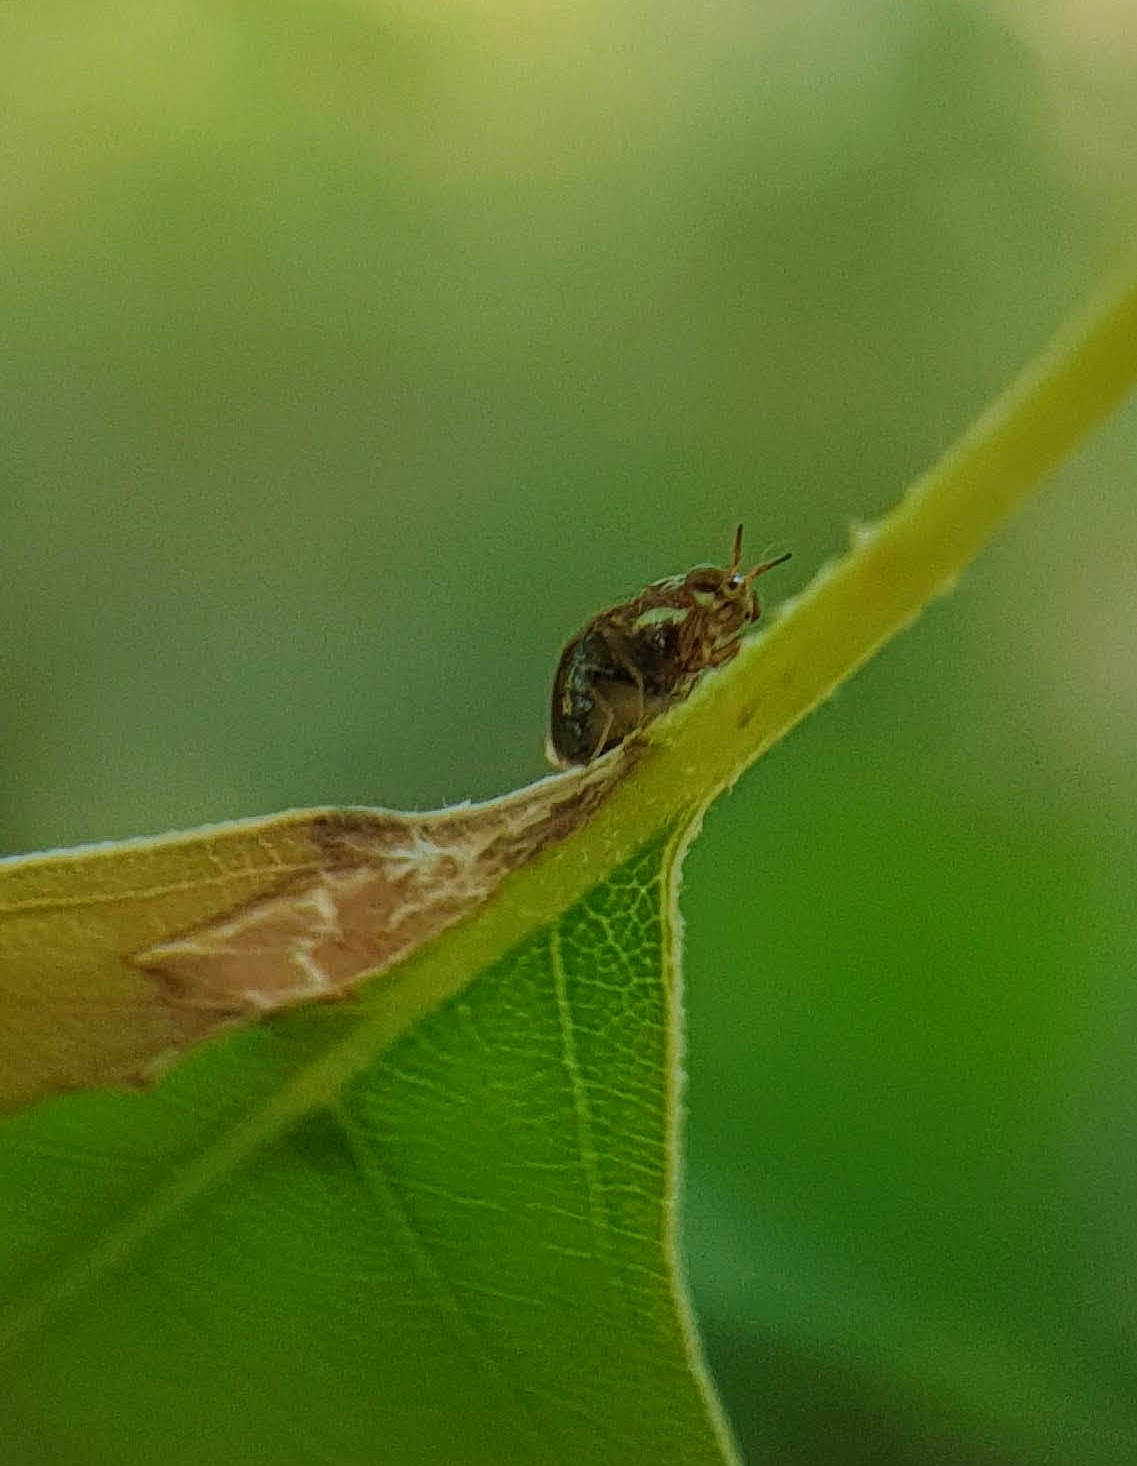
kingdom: Animalia
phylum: Arthropoda
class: Insecta
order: Diptera
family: Lauxaniidae
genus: Steganopsis
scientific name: Steganopsis melanogaster
